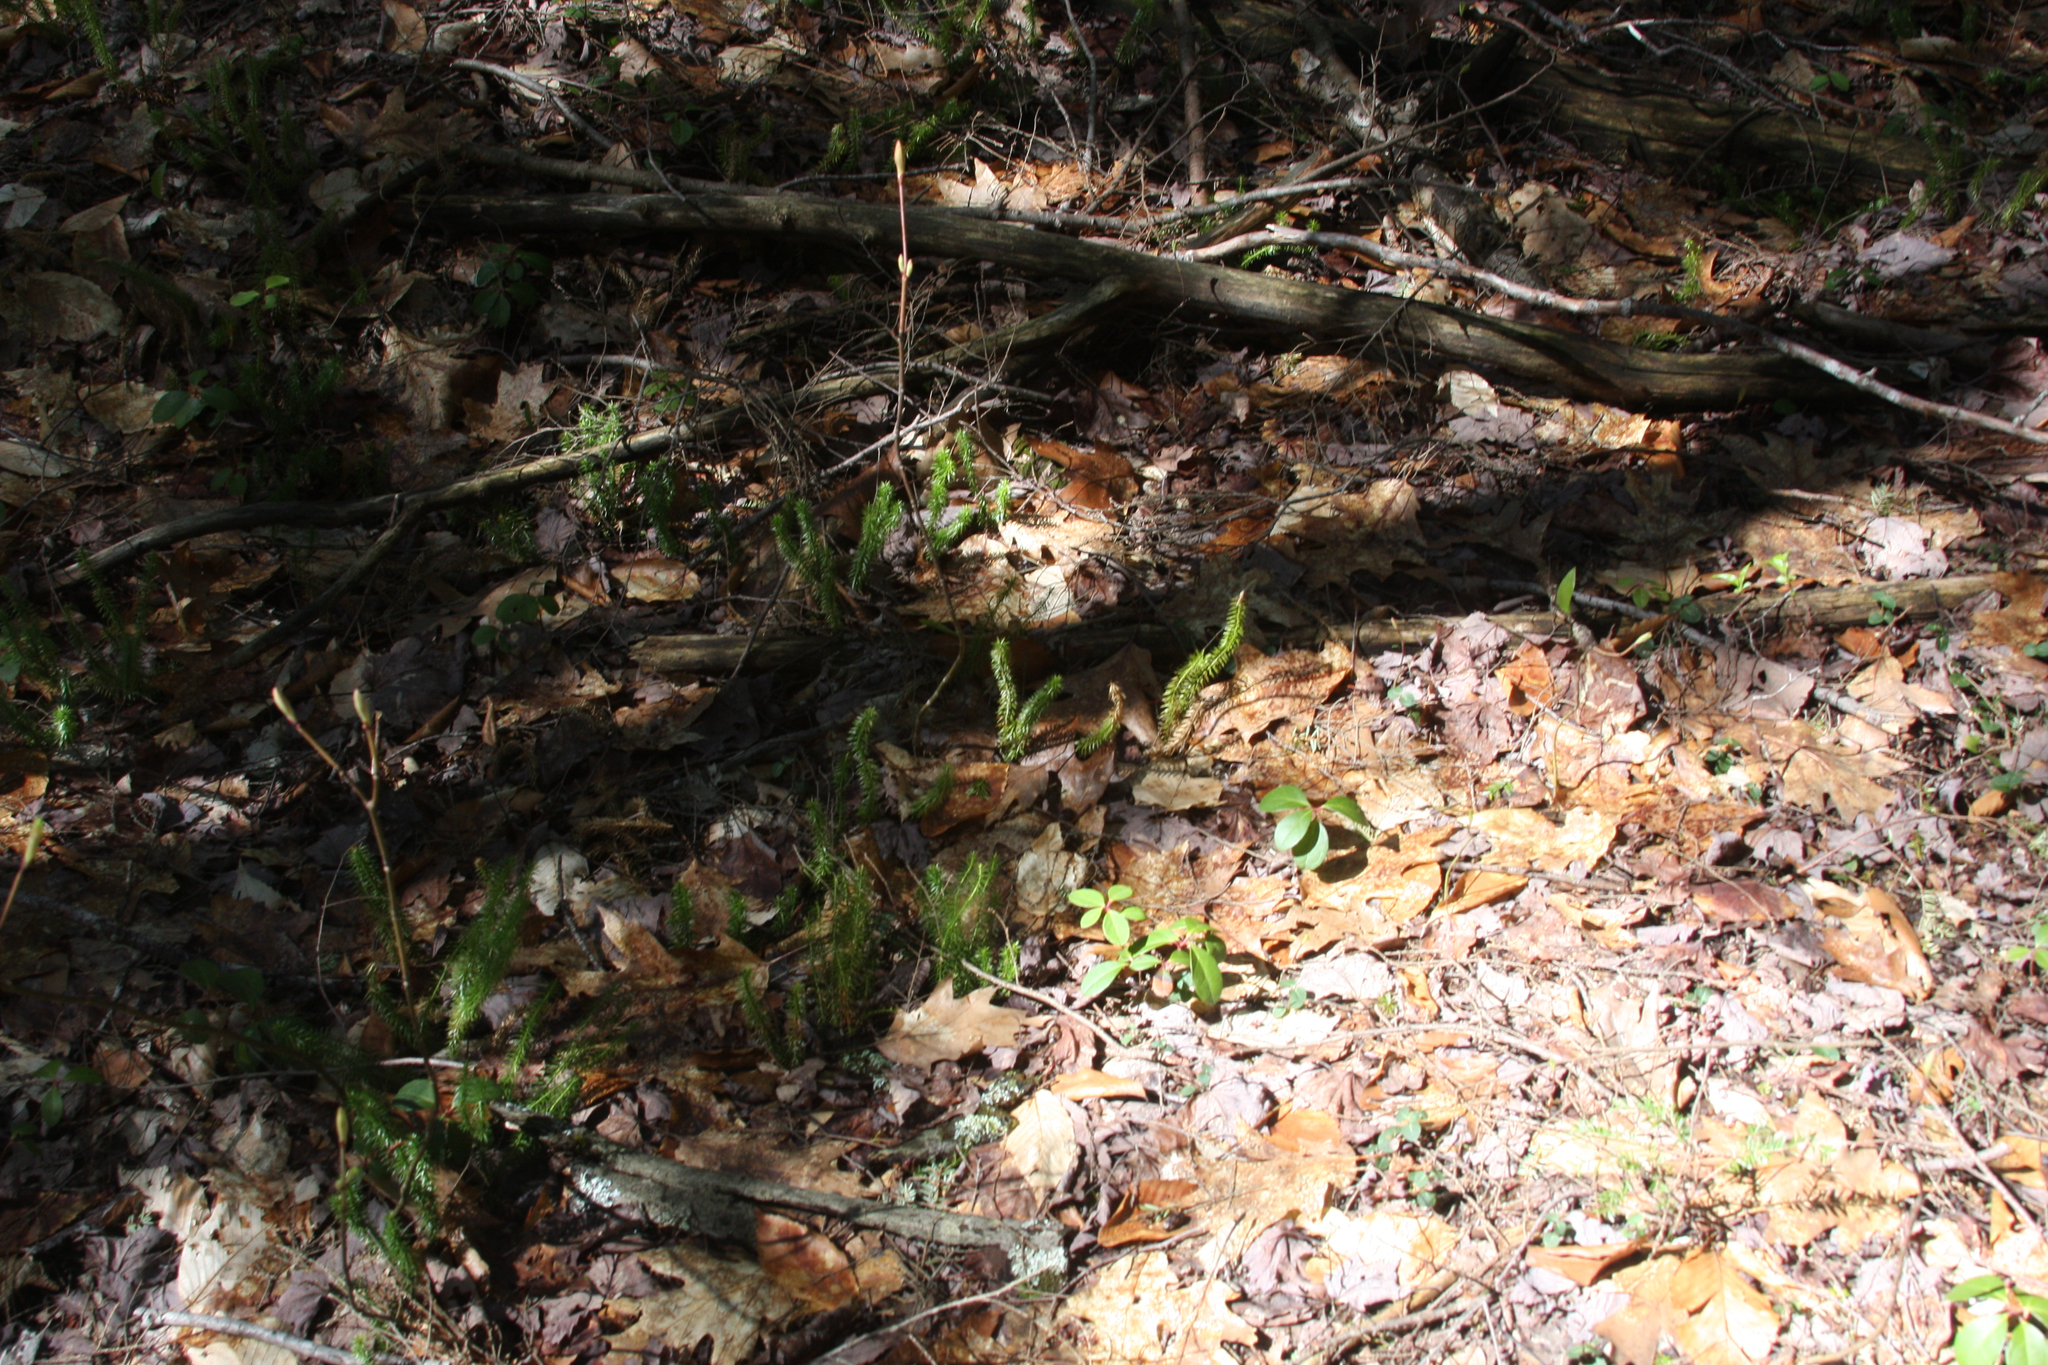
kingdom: Plantae
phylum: Tracheophyta
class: Lycopodiopsida
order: Lycopodiales
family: Lycopodiaceae
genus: Spinulum
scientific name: Spinulum annotinum
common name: Interrupted club-moss
